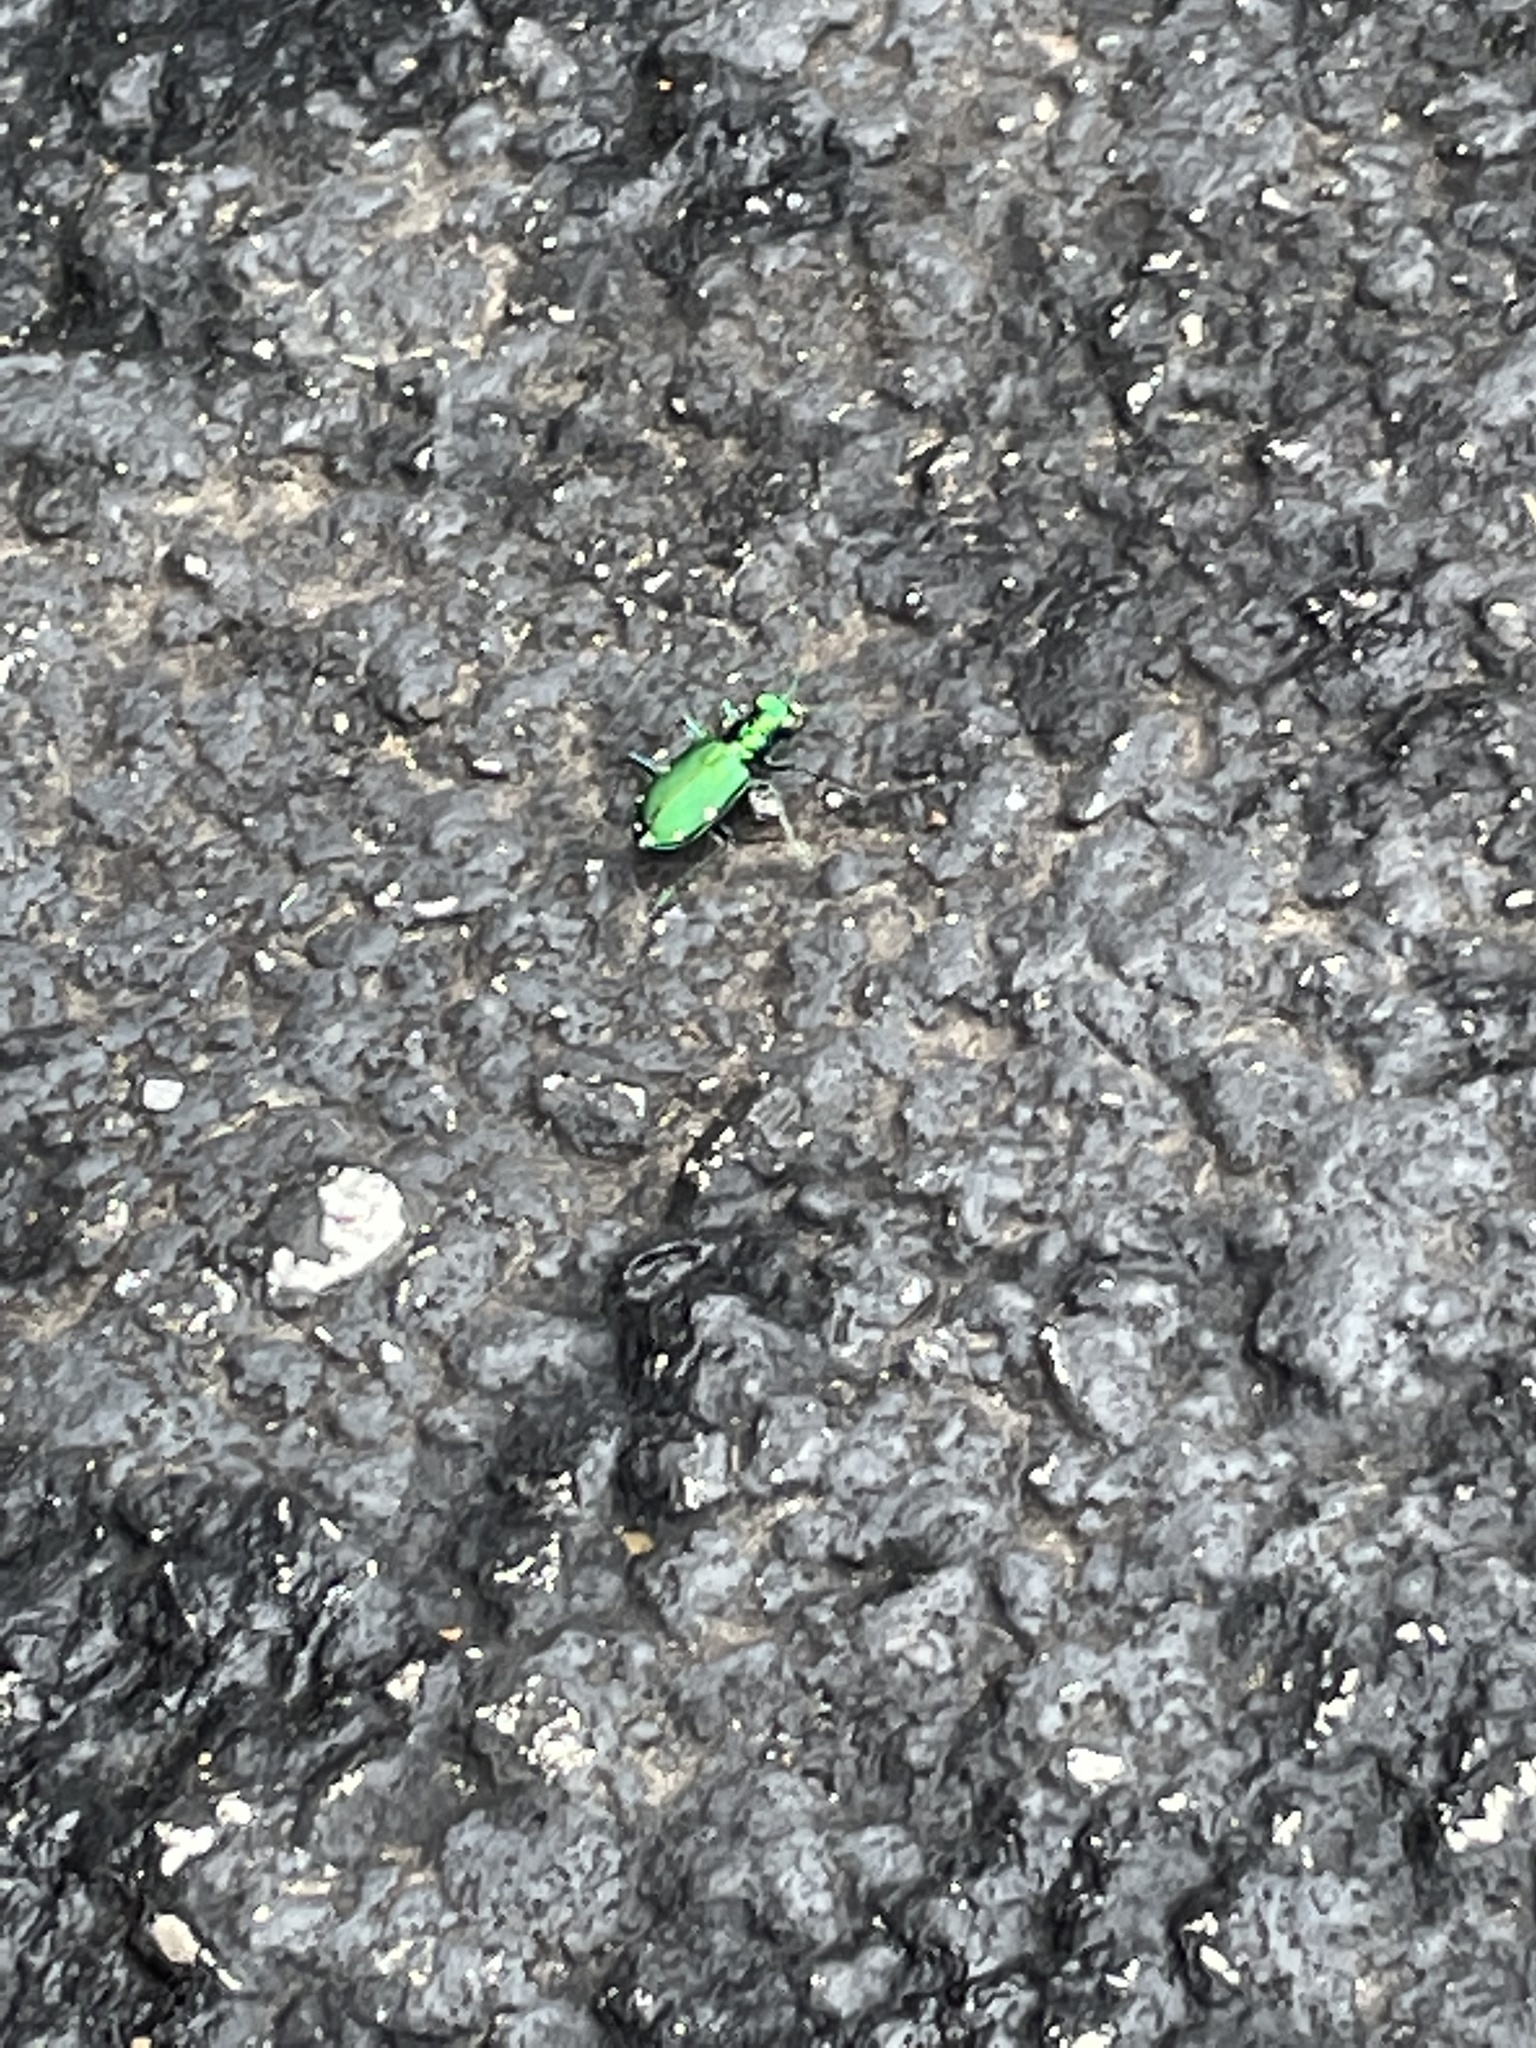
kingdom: Animalia
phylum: Arthropoda
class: Insecta
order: Coleoptera
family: Carabidae
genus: Cicindela
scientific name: Cicindela sexguttata
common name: Six-spotted tiger beetle
